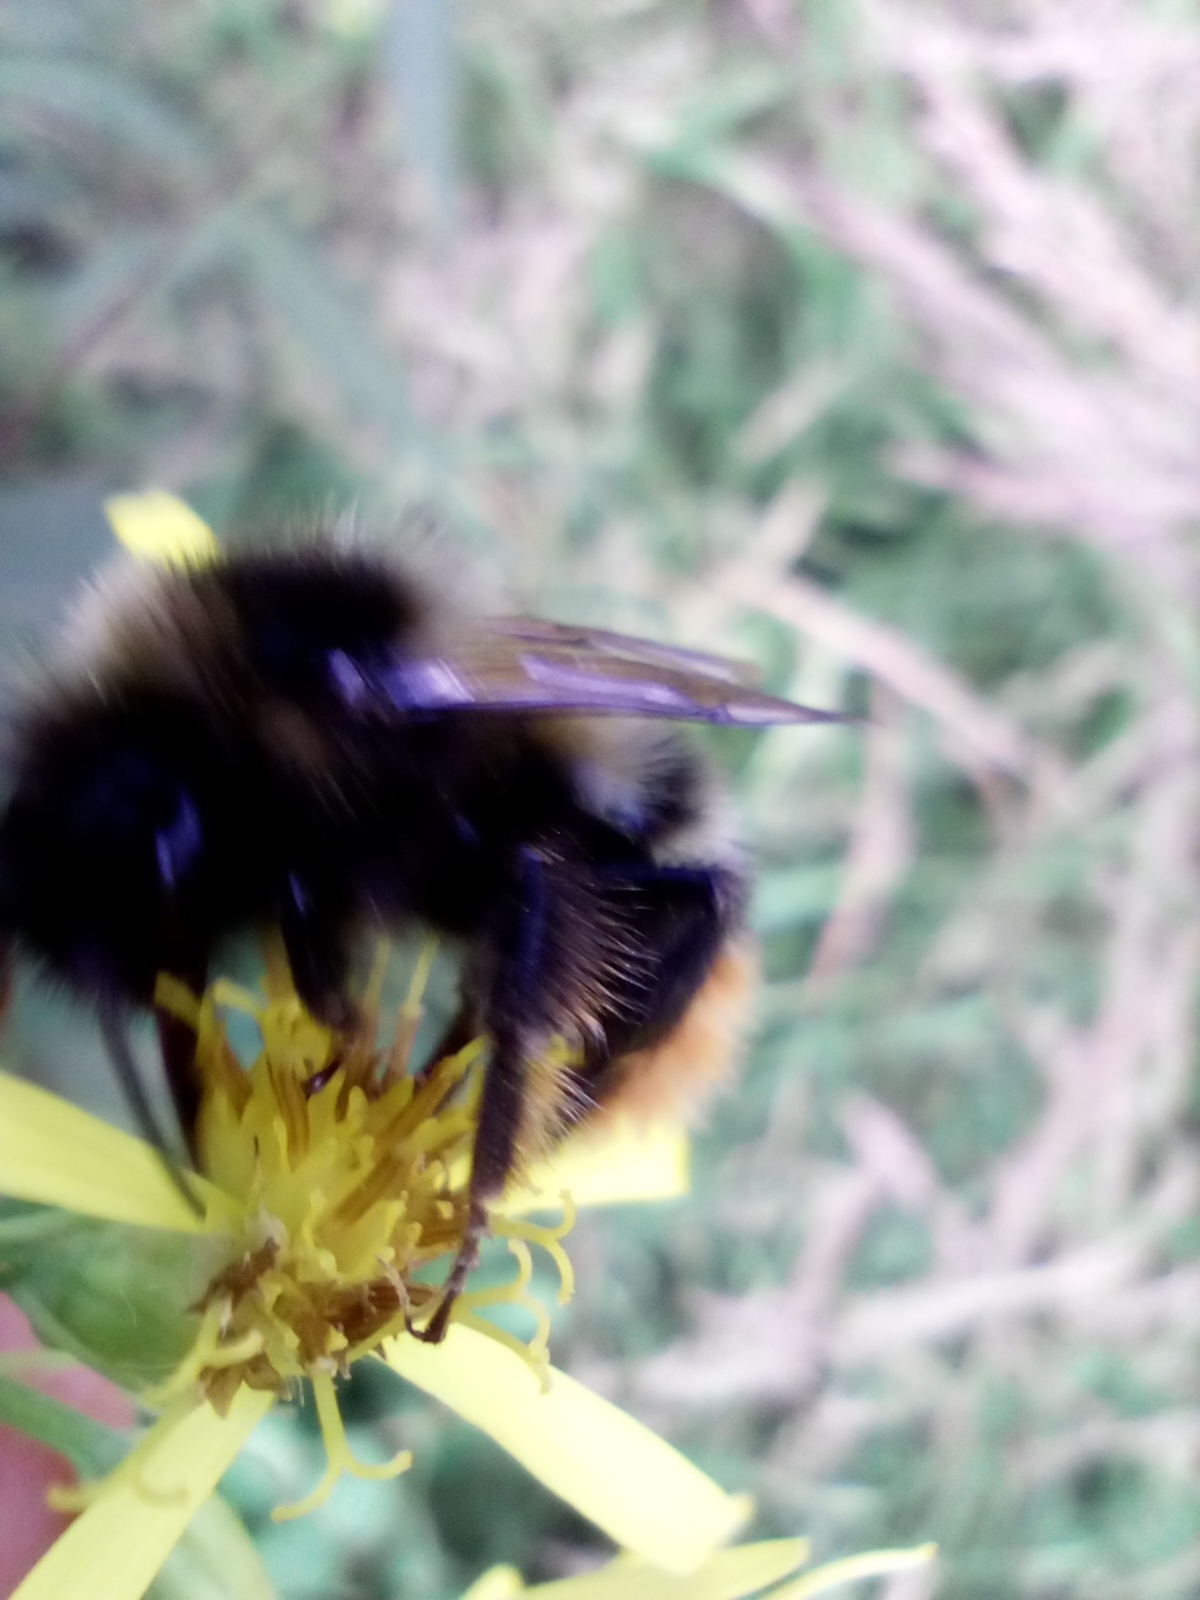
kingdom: Animalia
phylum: Arthropoda
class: Insecta
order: Hymenoptera
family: Apidae
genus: Bombus
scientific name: Bombus rupestris
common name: Hill cuckoo-bee
